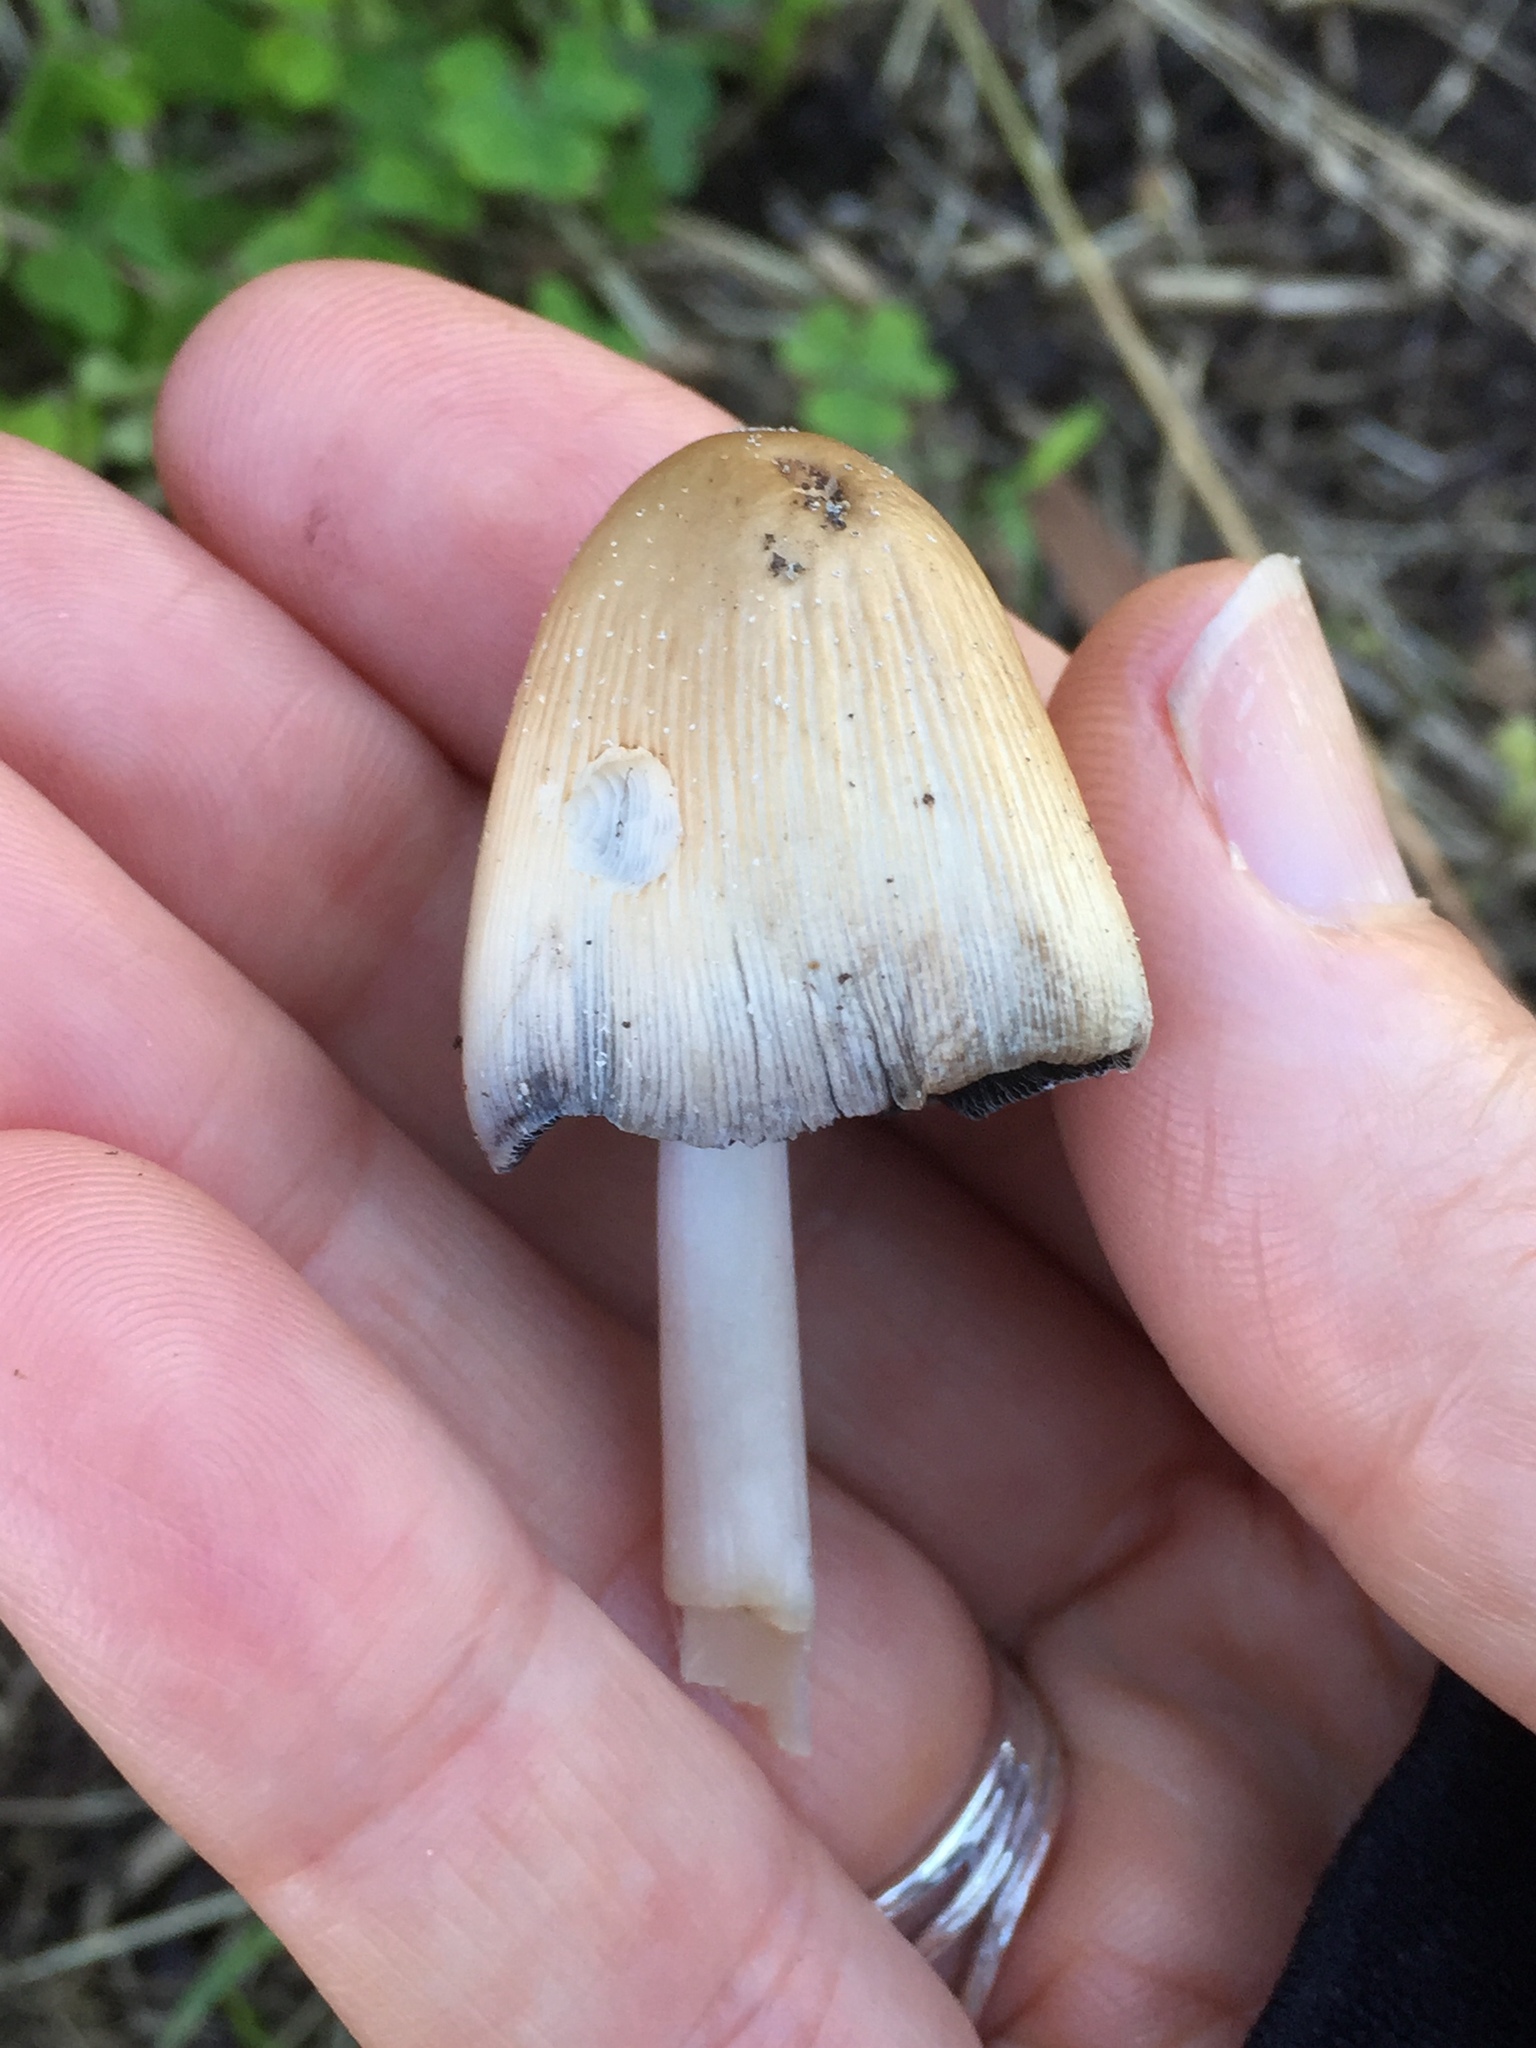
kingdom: Fungi
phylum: Basidiomycota
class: Agaricomycetes
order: Agaricales
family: Psathyrellaceae
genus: Coprinellus
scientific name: Coprinellus micaceus
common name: Glistening ink-cap
